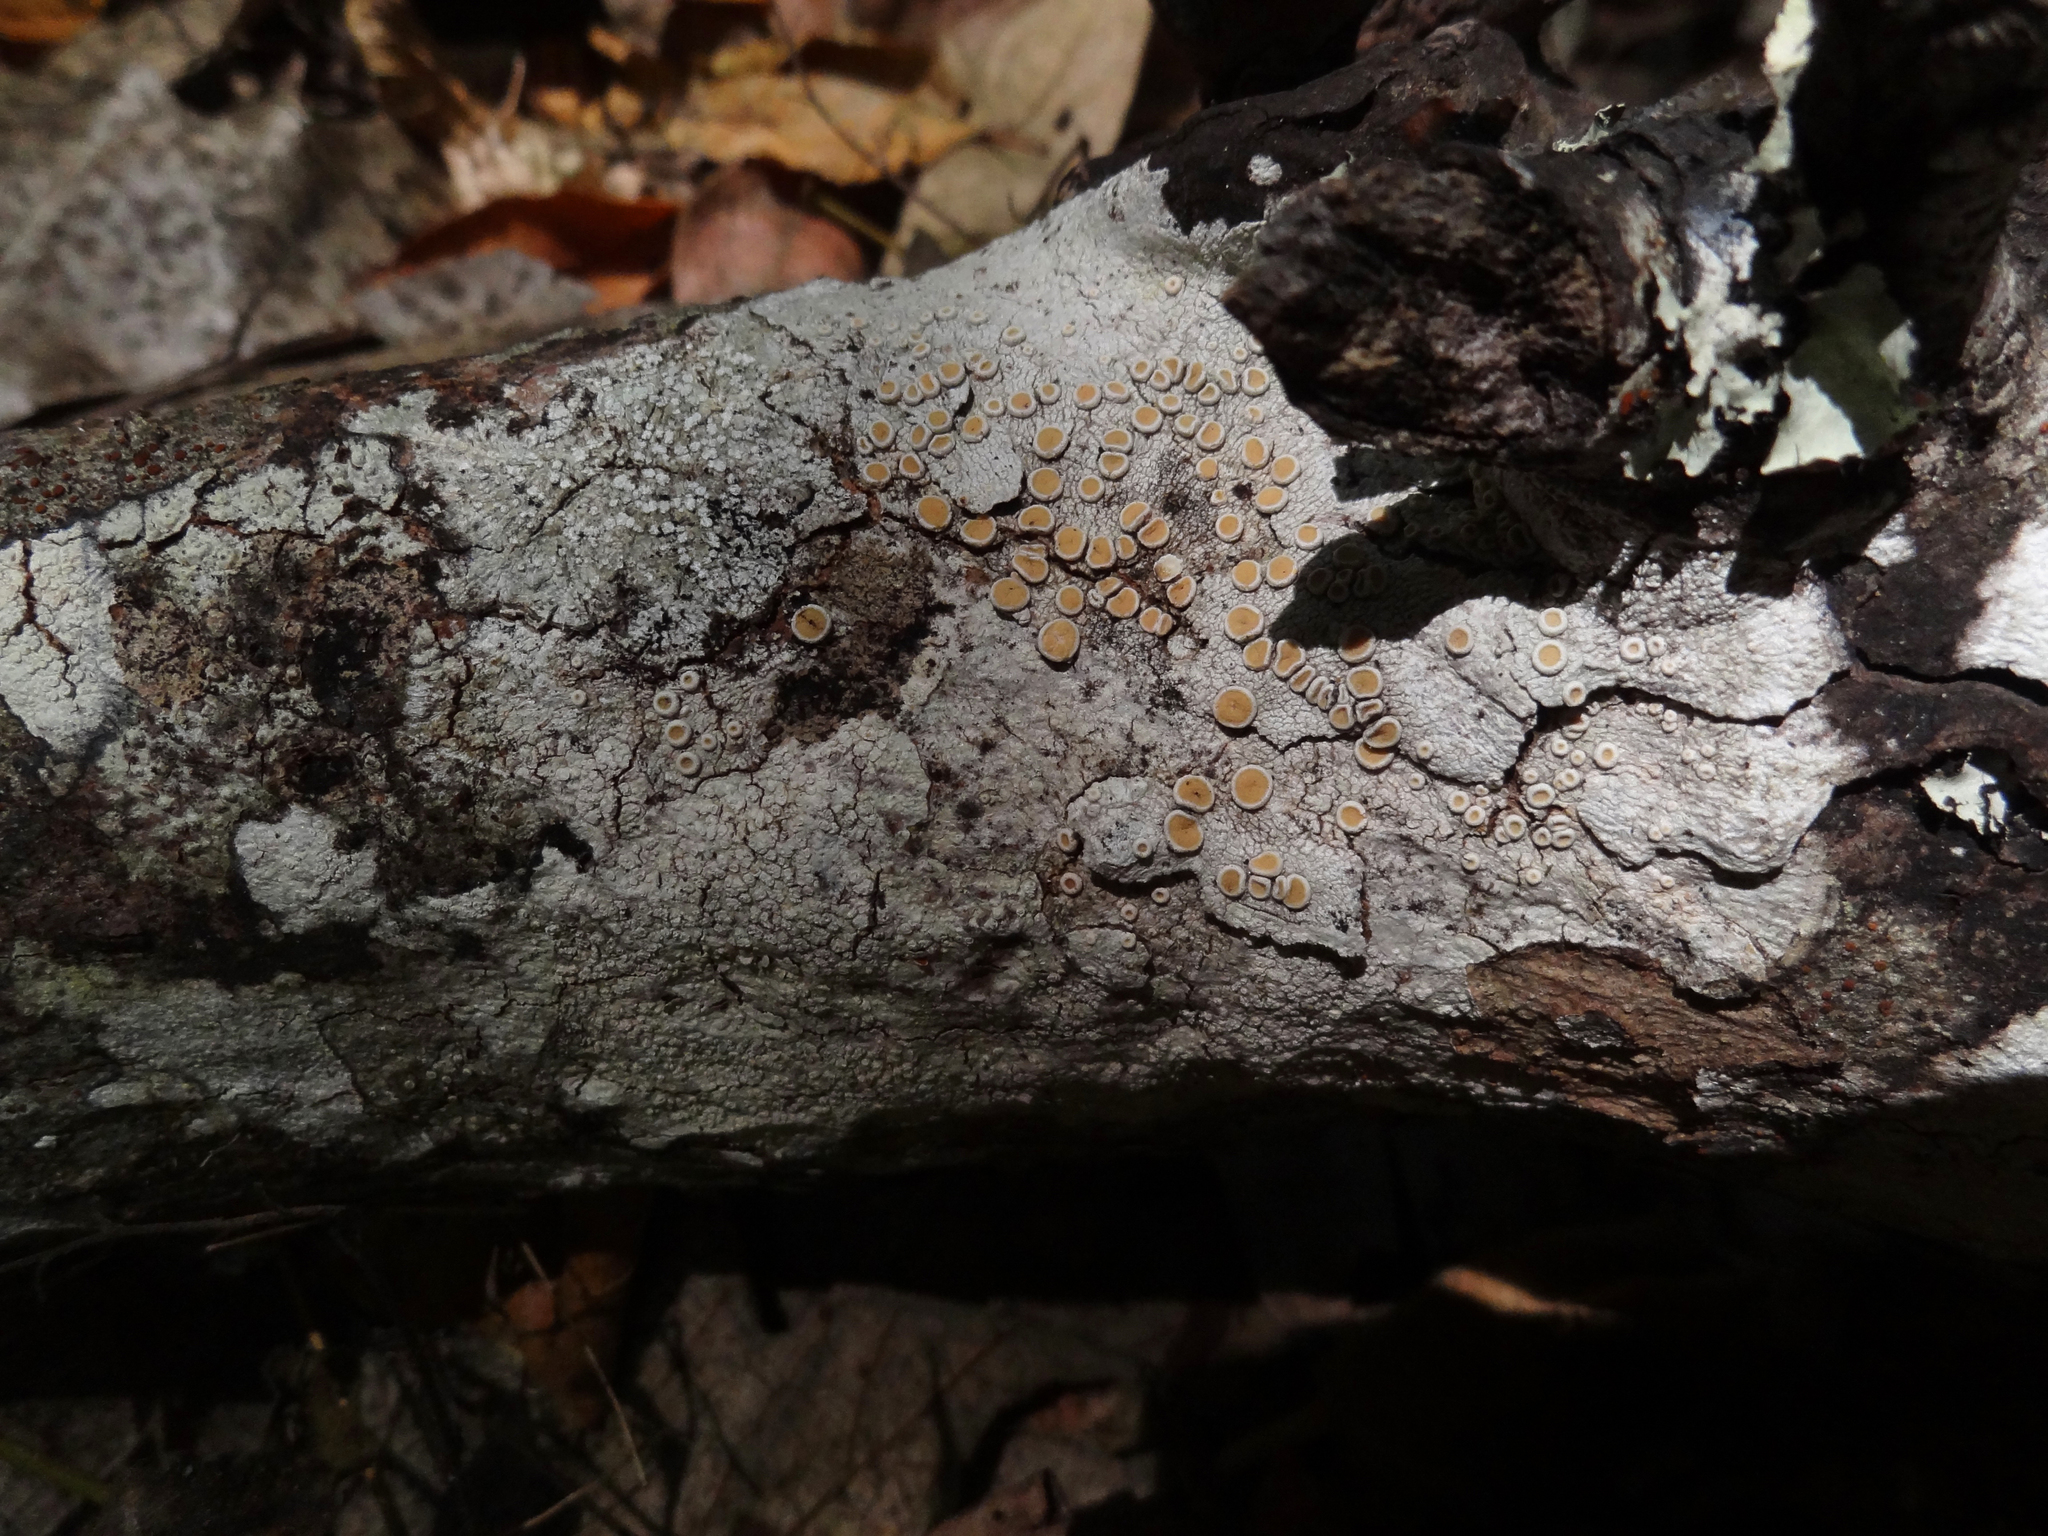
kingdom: Fungi
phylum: Ascomycota
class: Lecanoromycetes
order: Pertusariales
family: Ochrolechiaceae
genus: Ochrolechia
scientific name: Ochrolechia oregonensis
